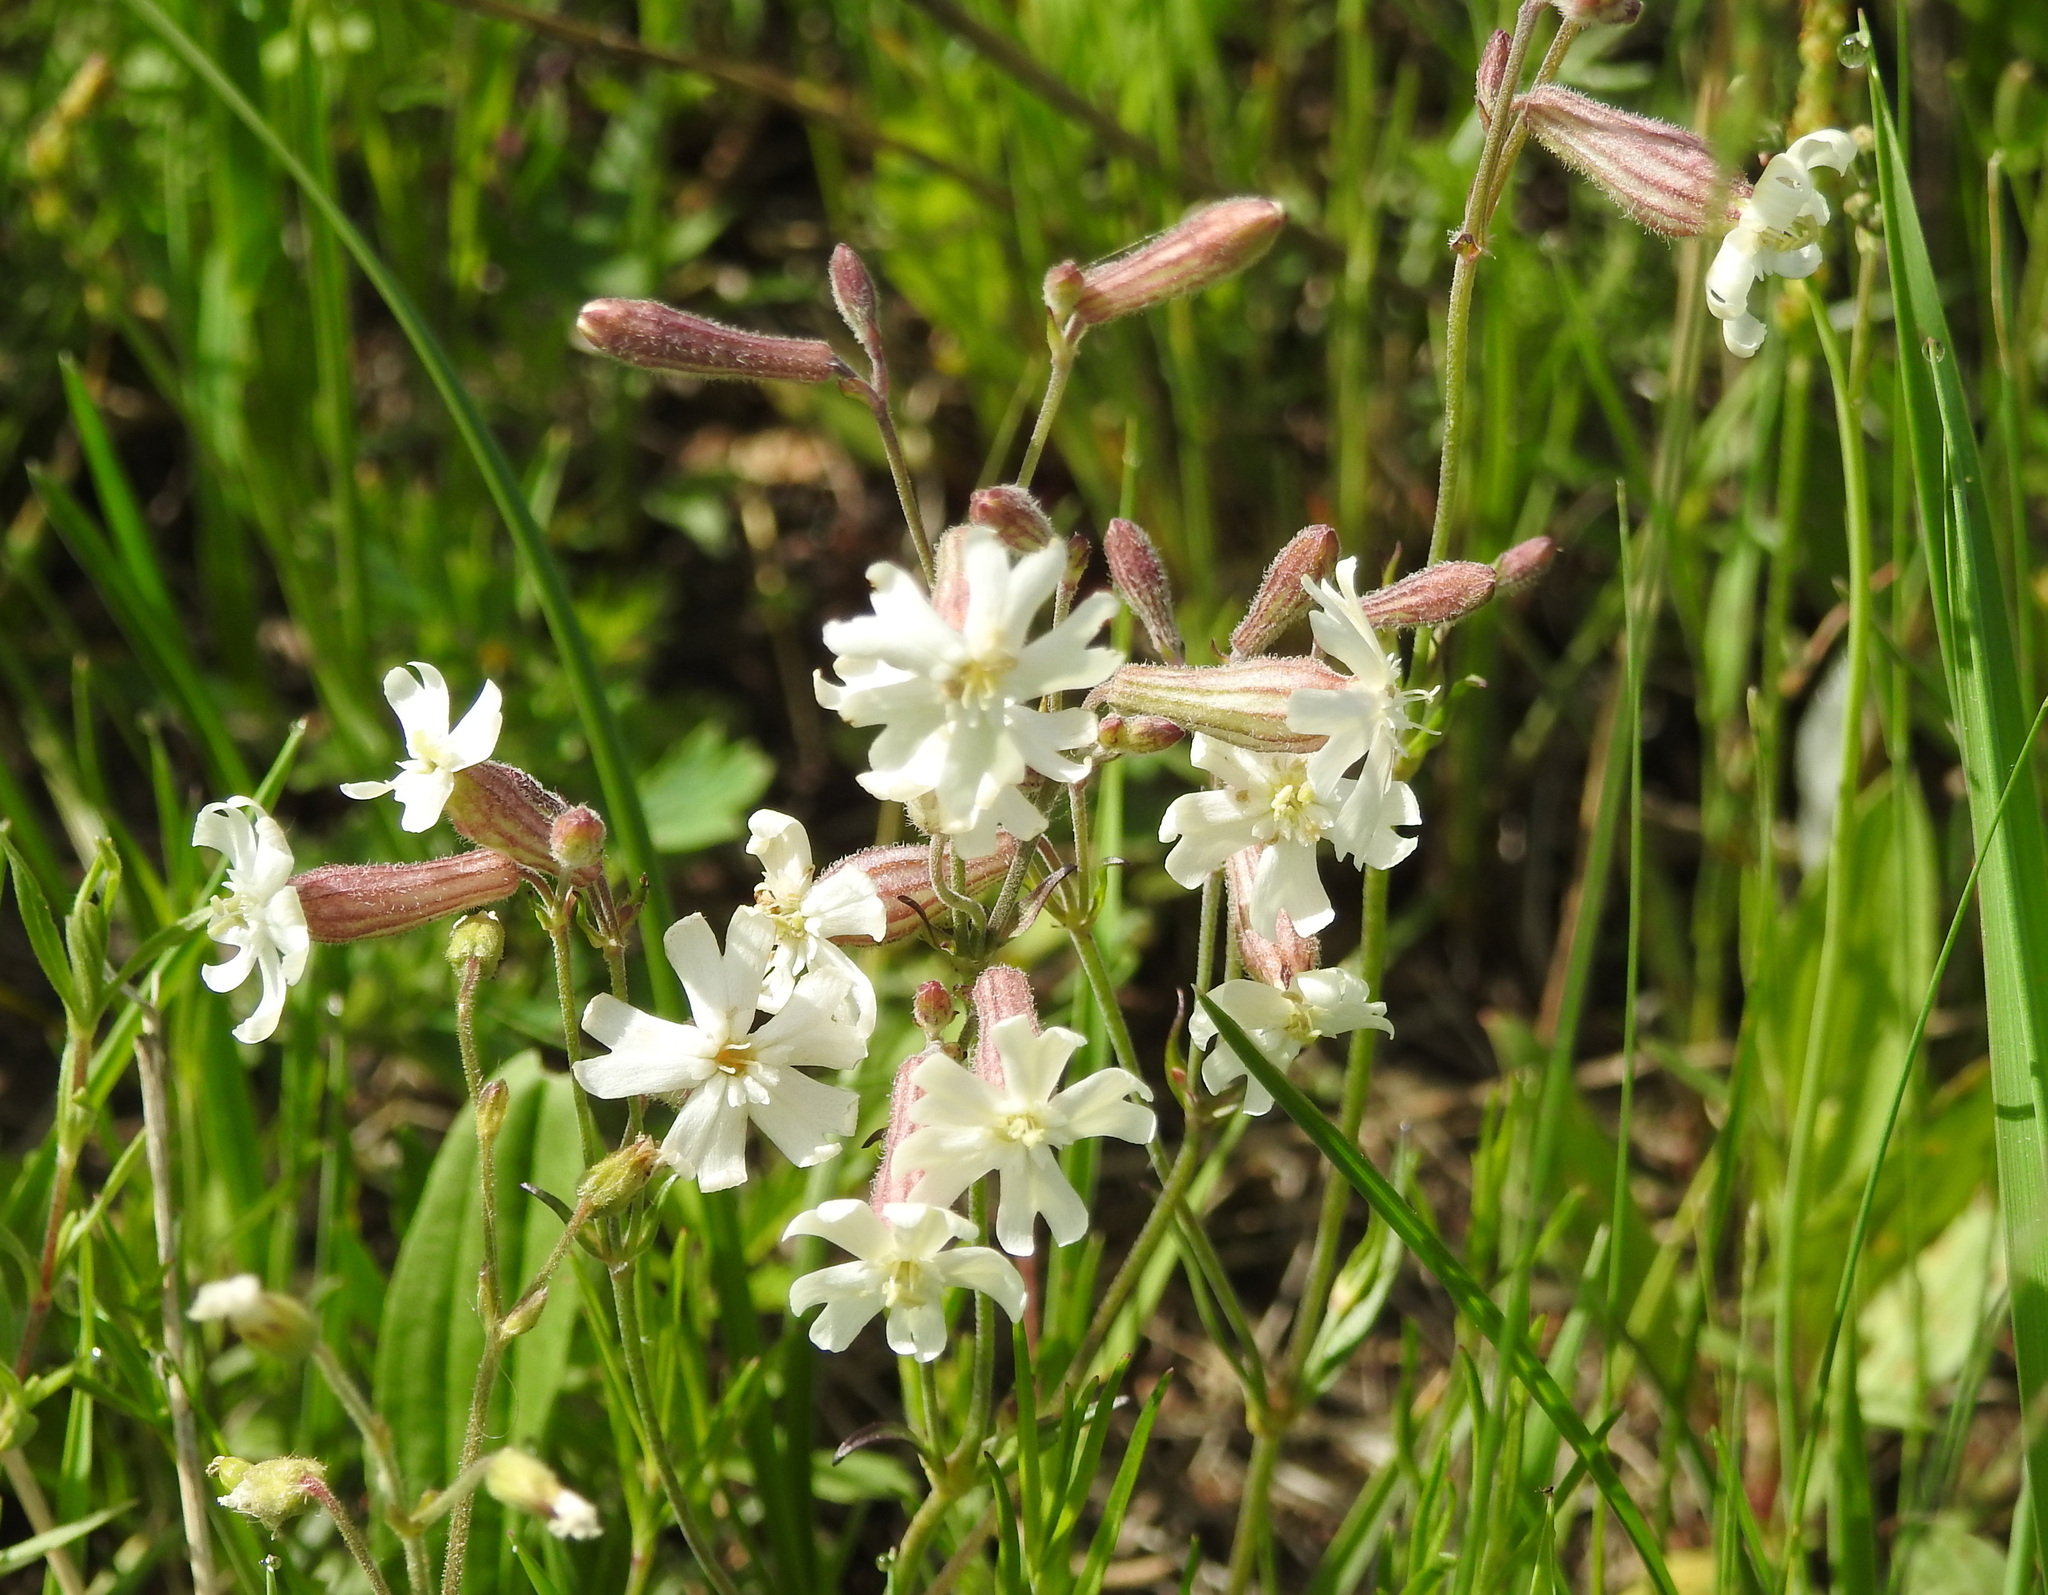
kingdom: Plantae
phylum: Tracheophyta
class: Magnoliopsida
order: Caryophyllales
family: Caryophyllaceae
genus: Silene
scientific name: Silene amoena
